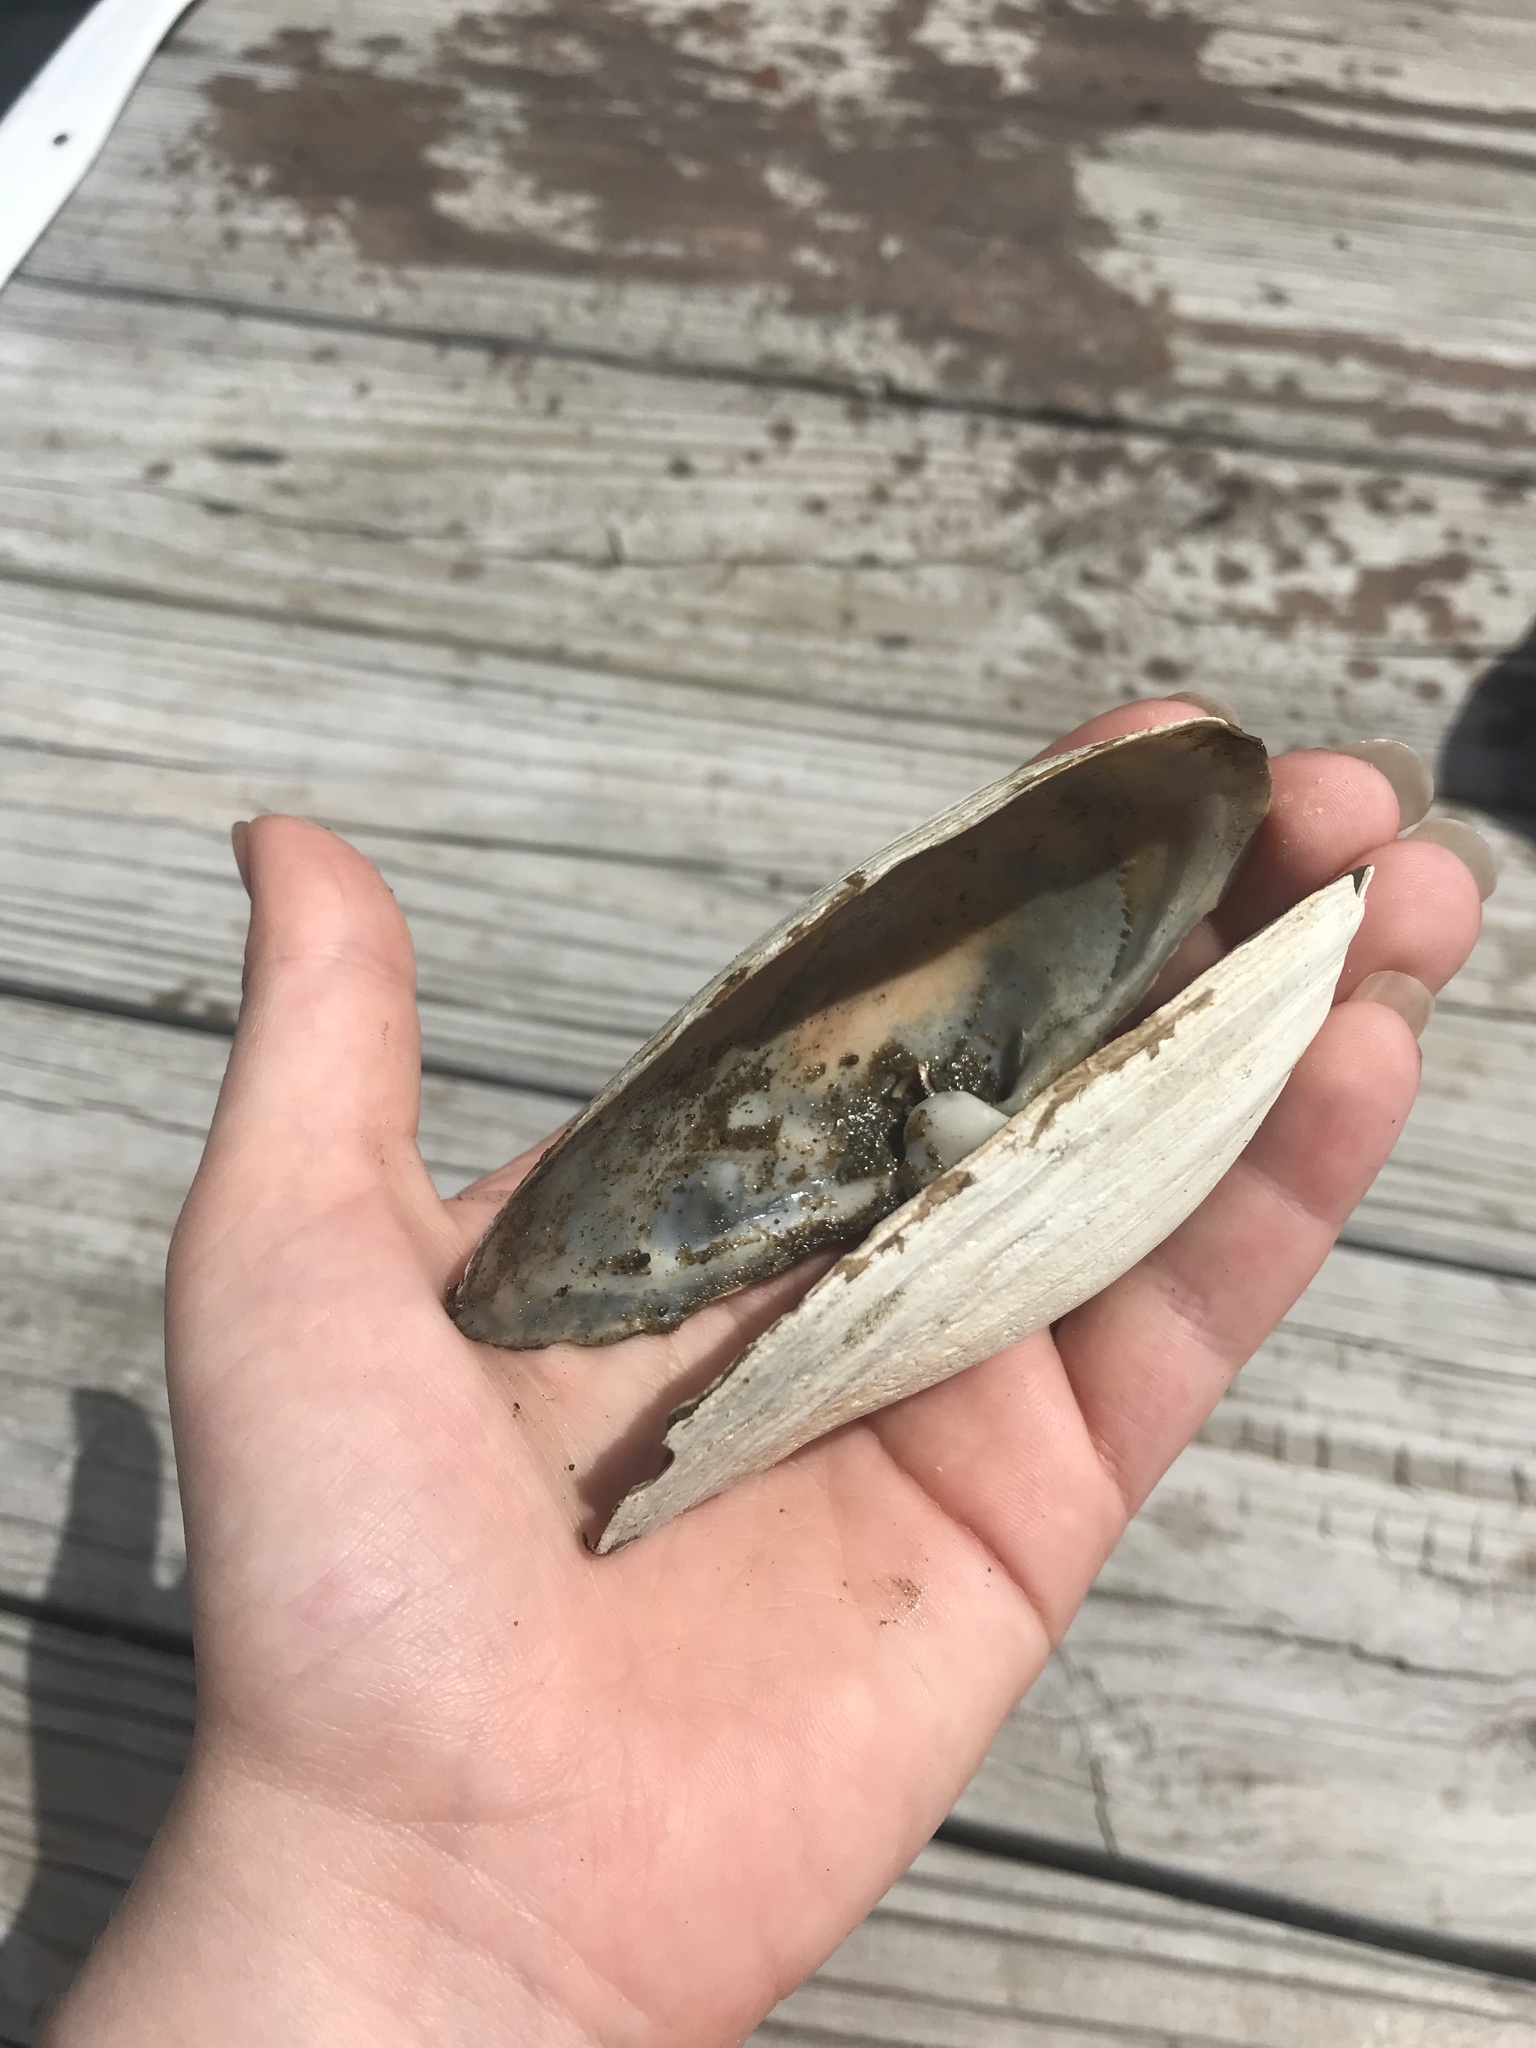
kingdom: Animalia
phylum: Mollusca
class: Bivalvia
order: Myida
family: Myidae
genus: Mya
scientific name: Mya arenaria
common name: Soft-shelled clam
